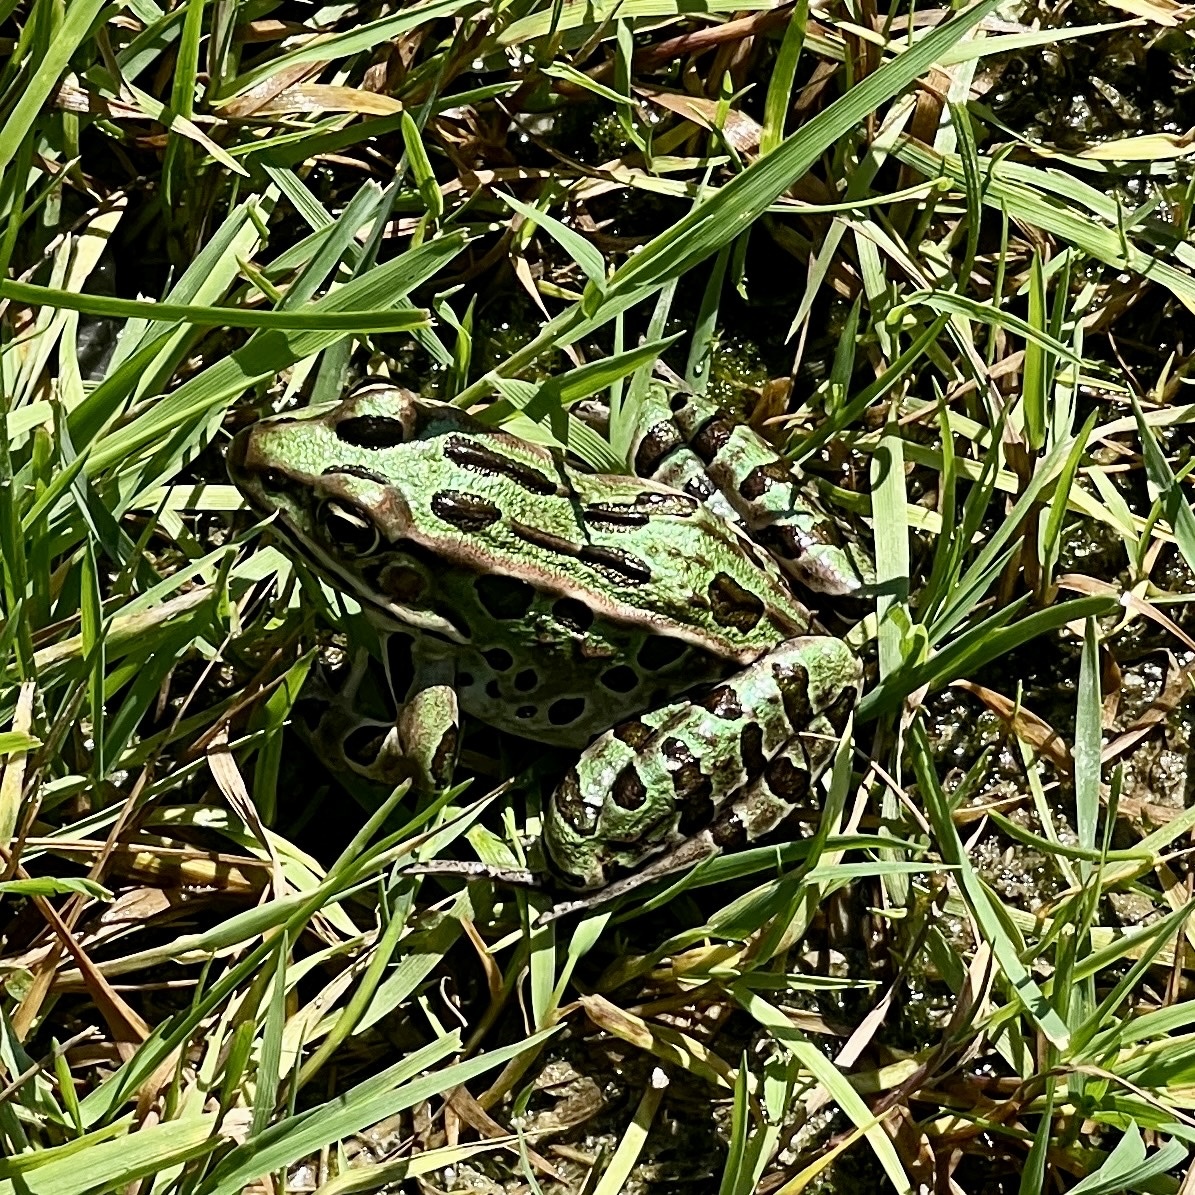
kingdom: Animalia
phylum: Chordata
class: Amphibia
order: Anura
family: Ranidae
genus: Lithobates
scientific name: Lithobates pipiens
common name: Northern leopard frog
